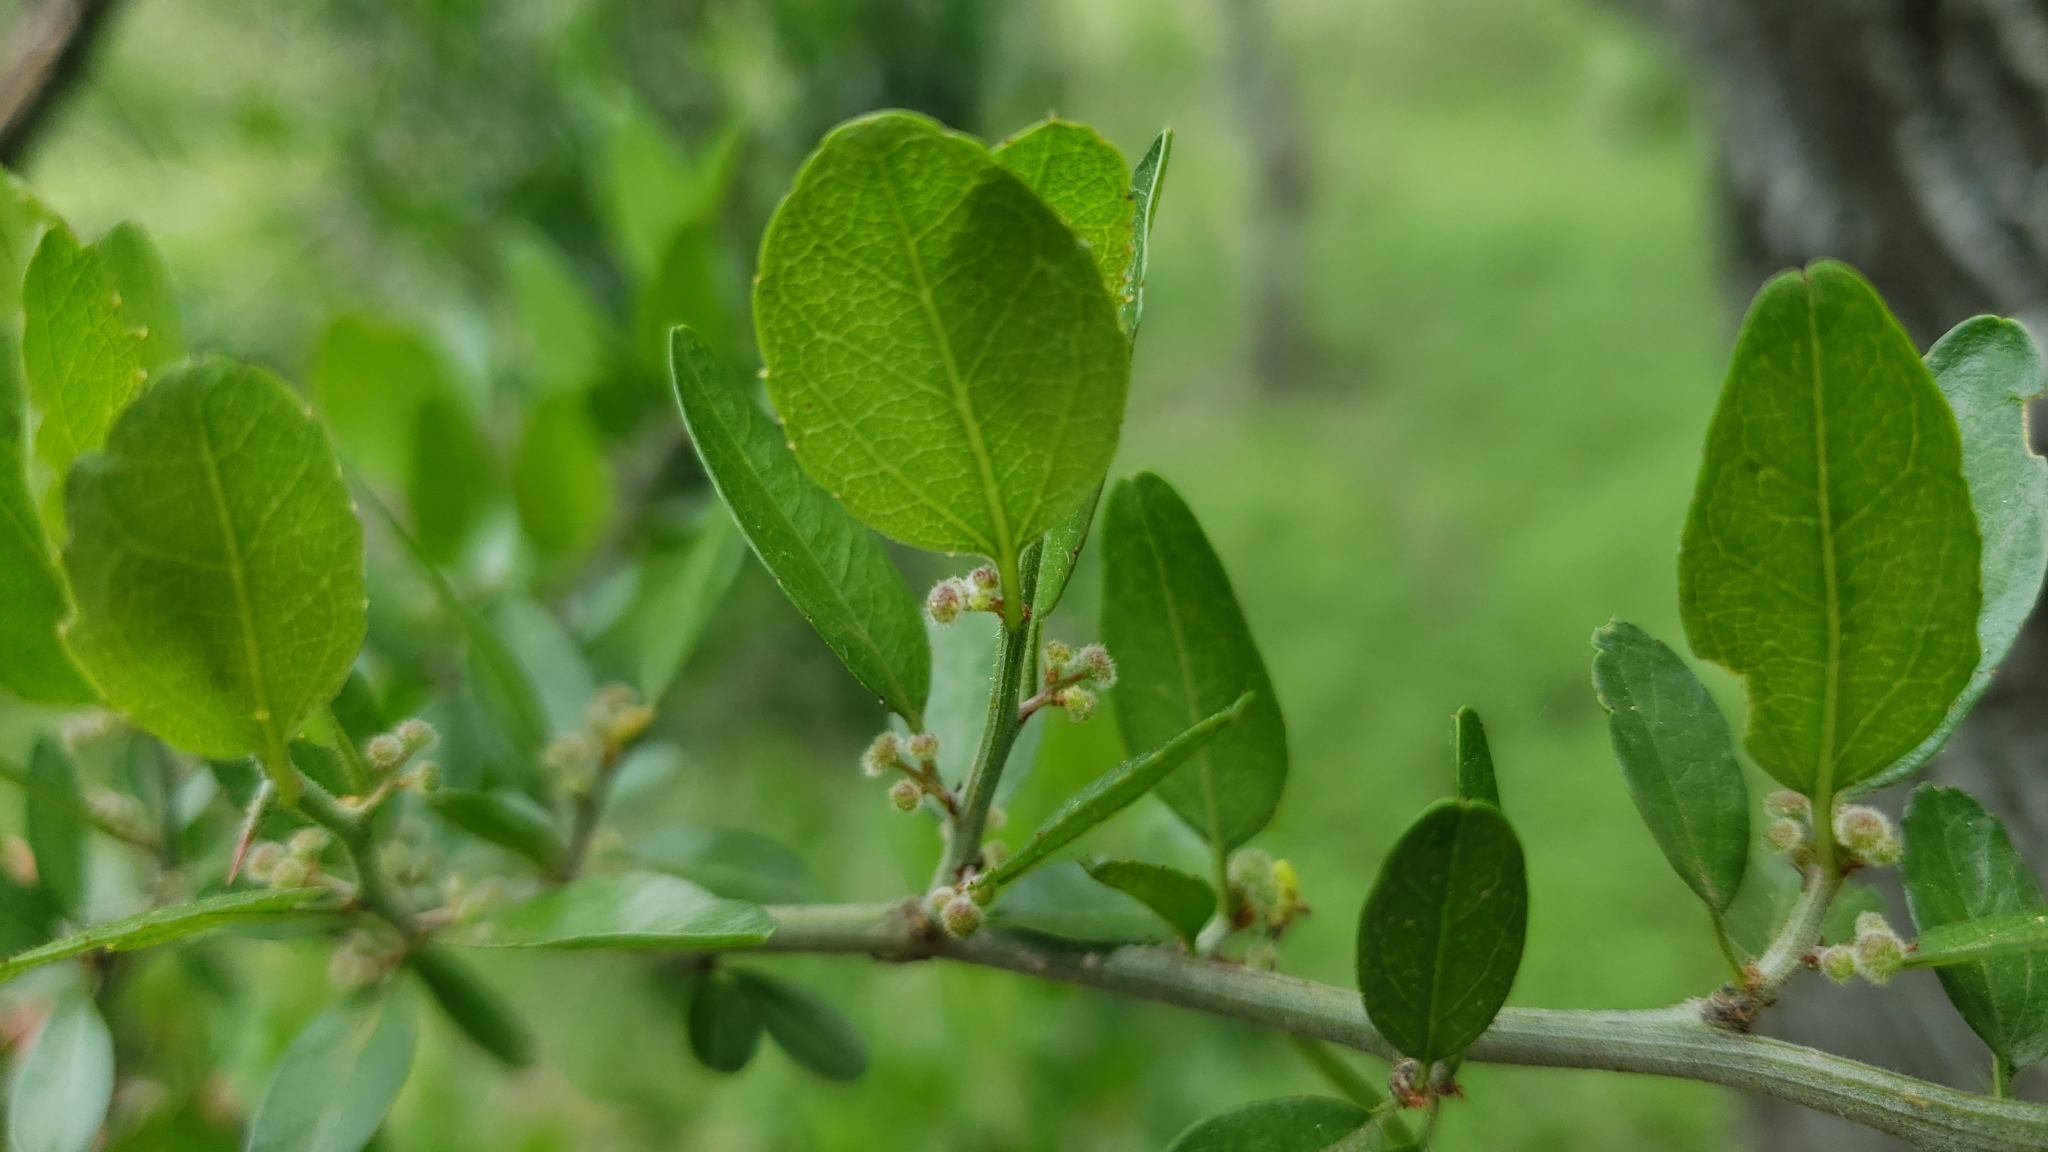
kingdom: Plantae
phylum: Tracheophyta
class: Magnoliopsida
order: Rosales
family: Rhamnaceae
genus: Sarcomphalus
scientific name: Sarcomphalus obtusifolius
